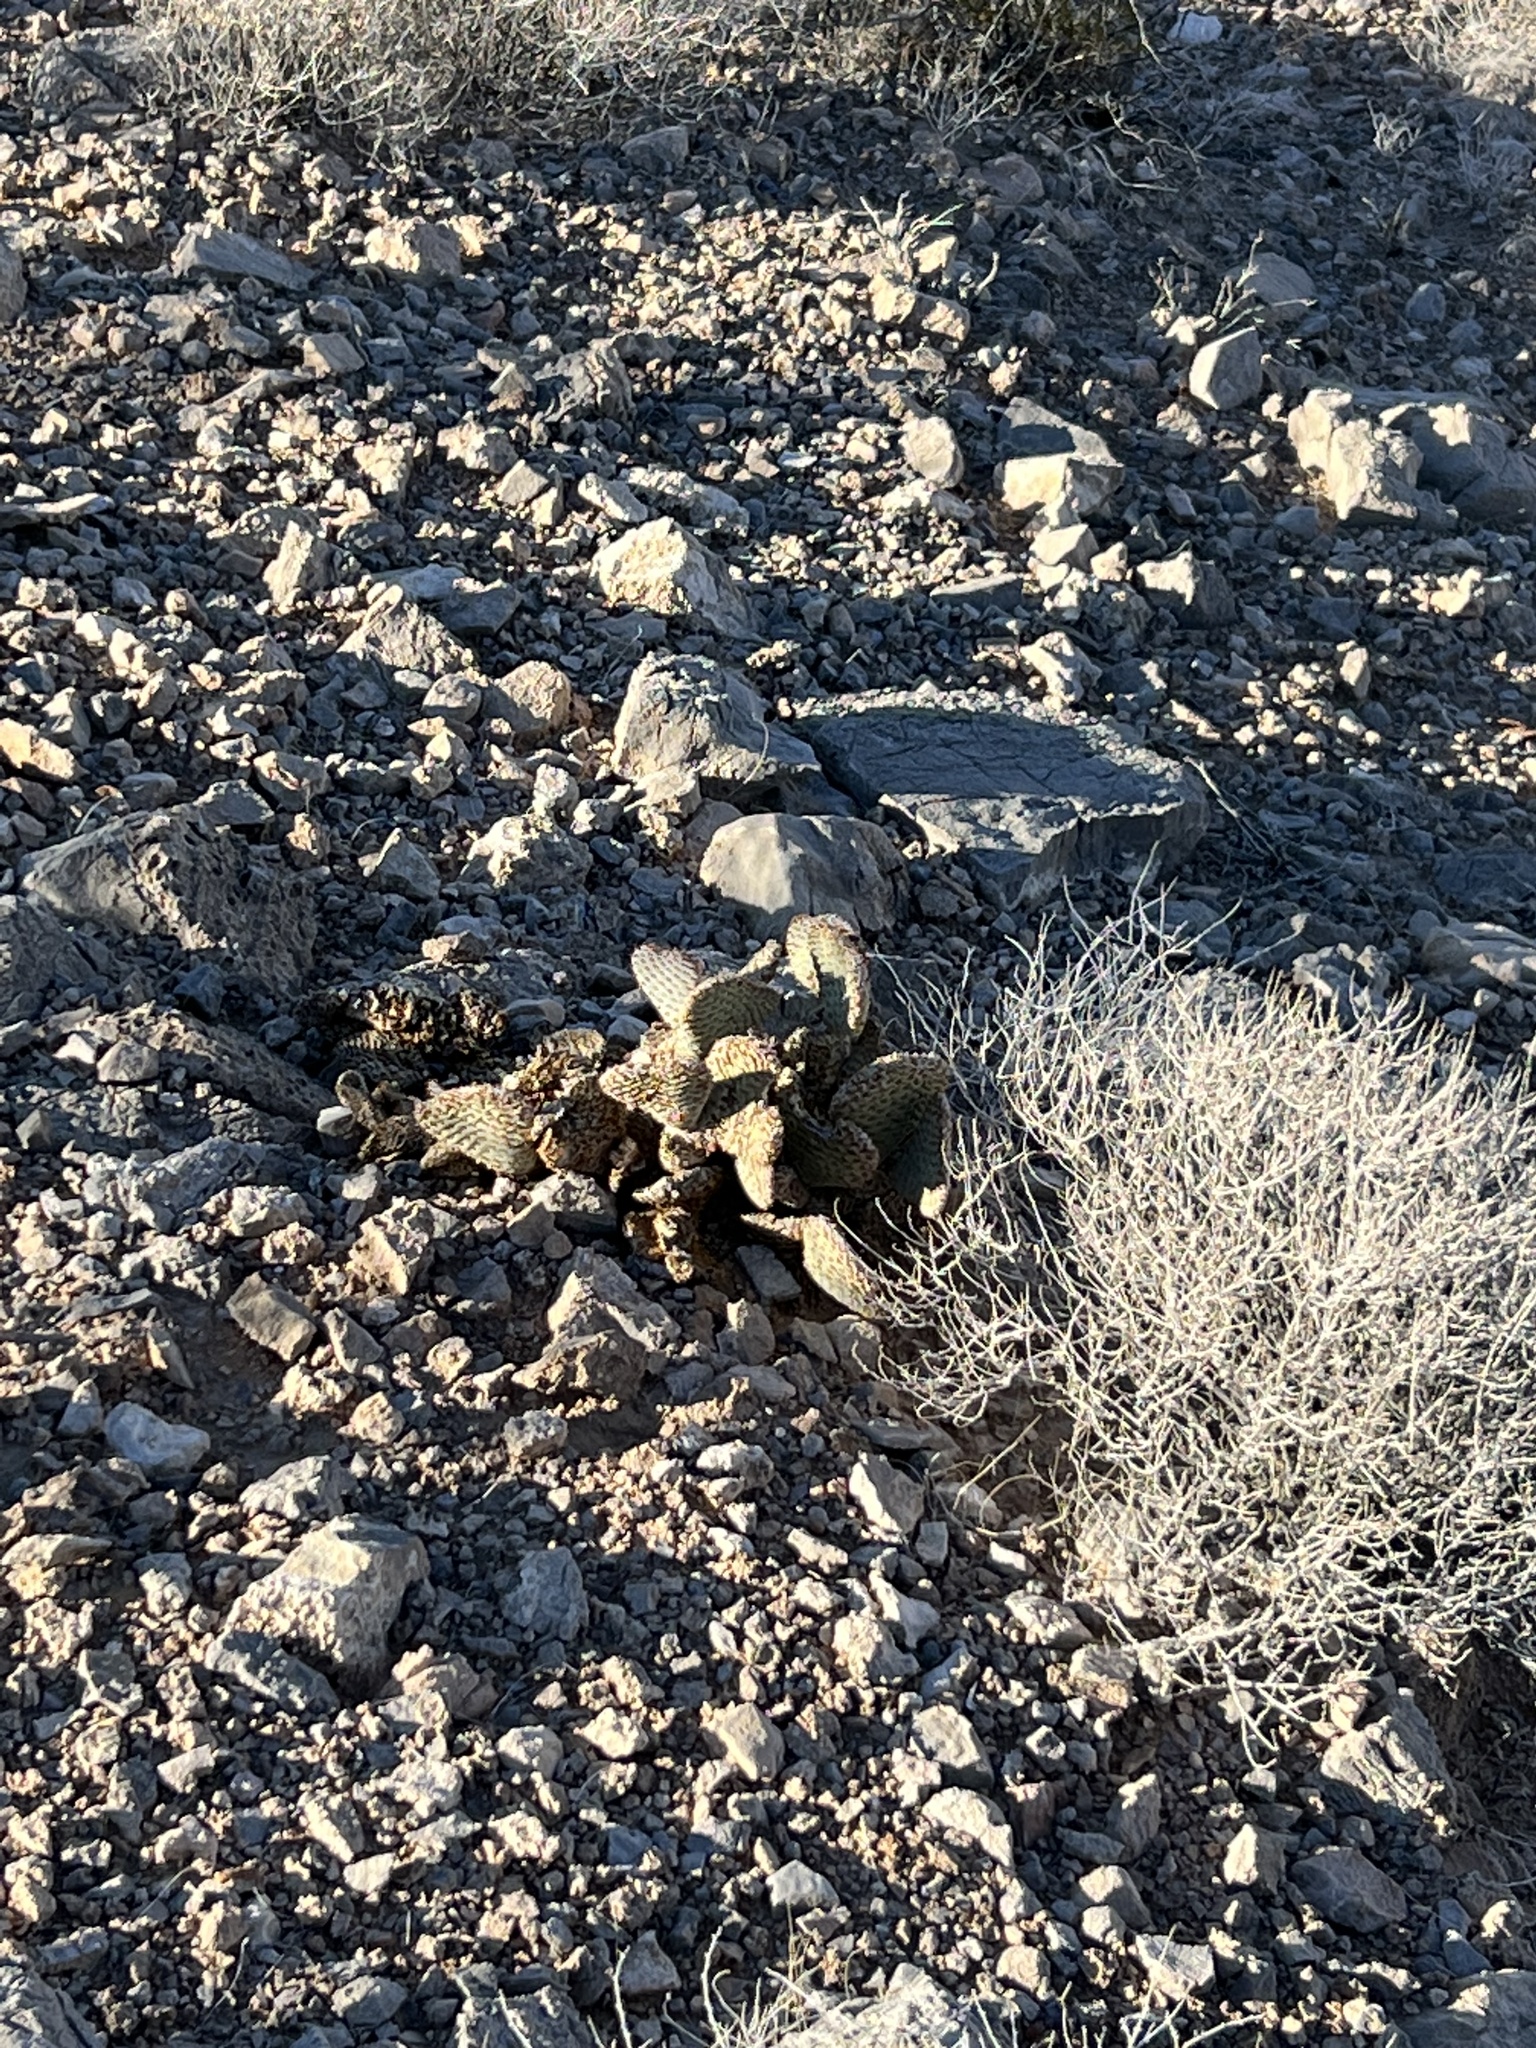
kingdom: Plantae
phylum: Tracheophyta
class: Magnoliopsida
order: Caryophyllales
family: Cactaceae
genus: Opuntia
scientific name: Opuntia basilaris
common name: Beavertail prickly-pear
